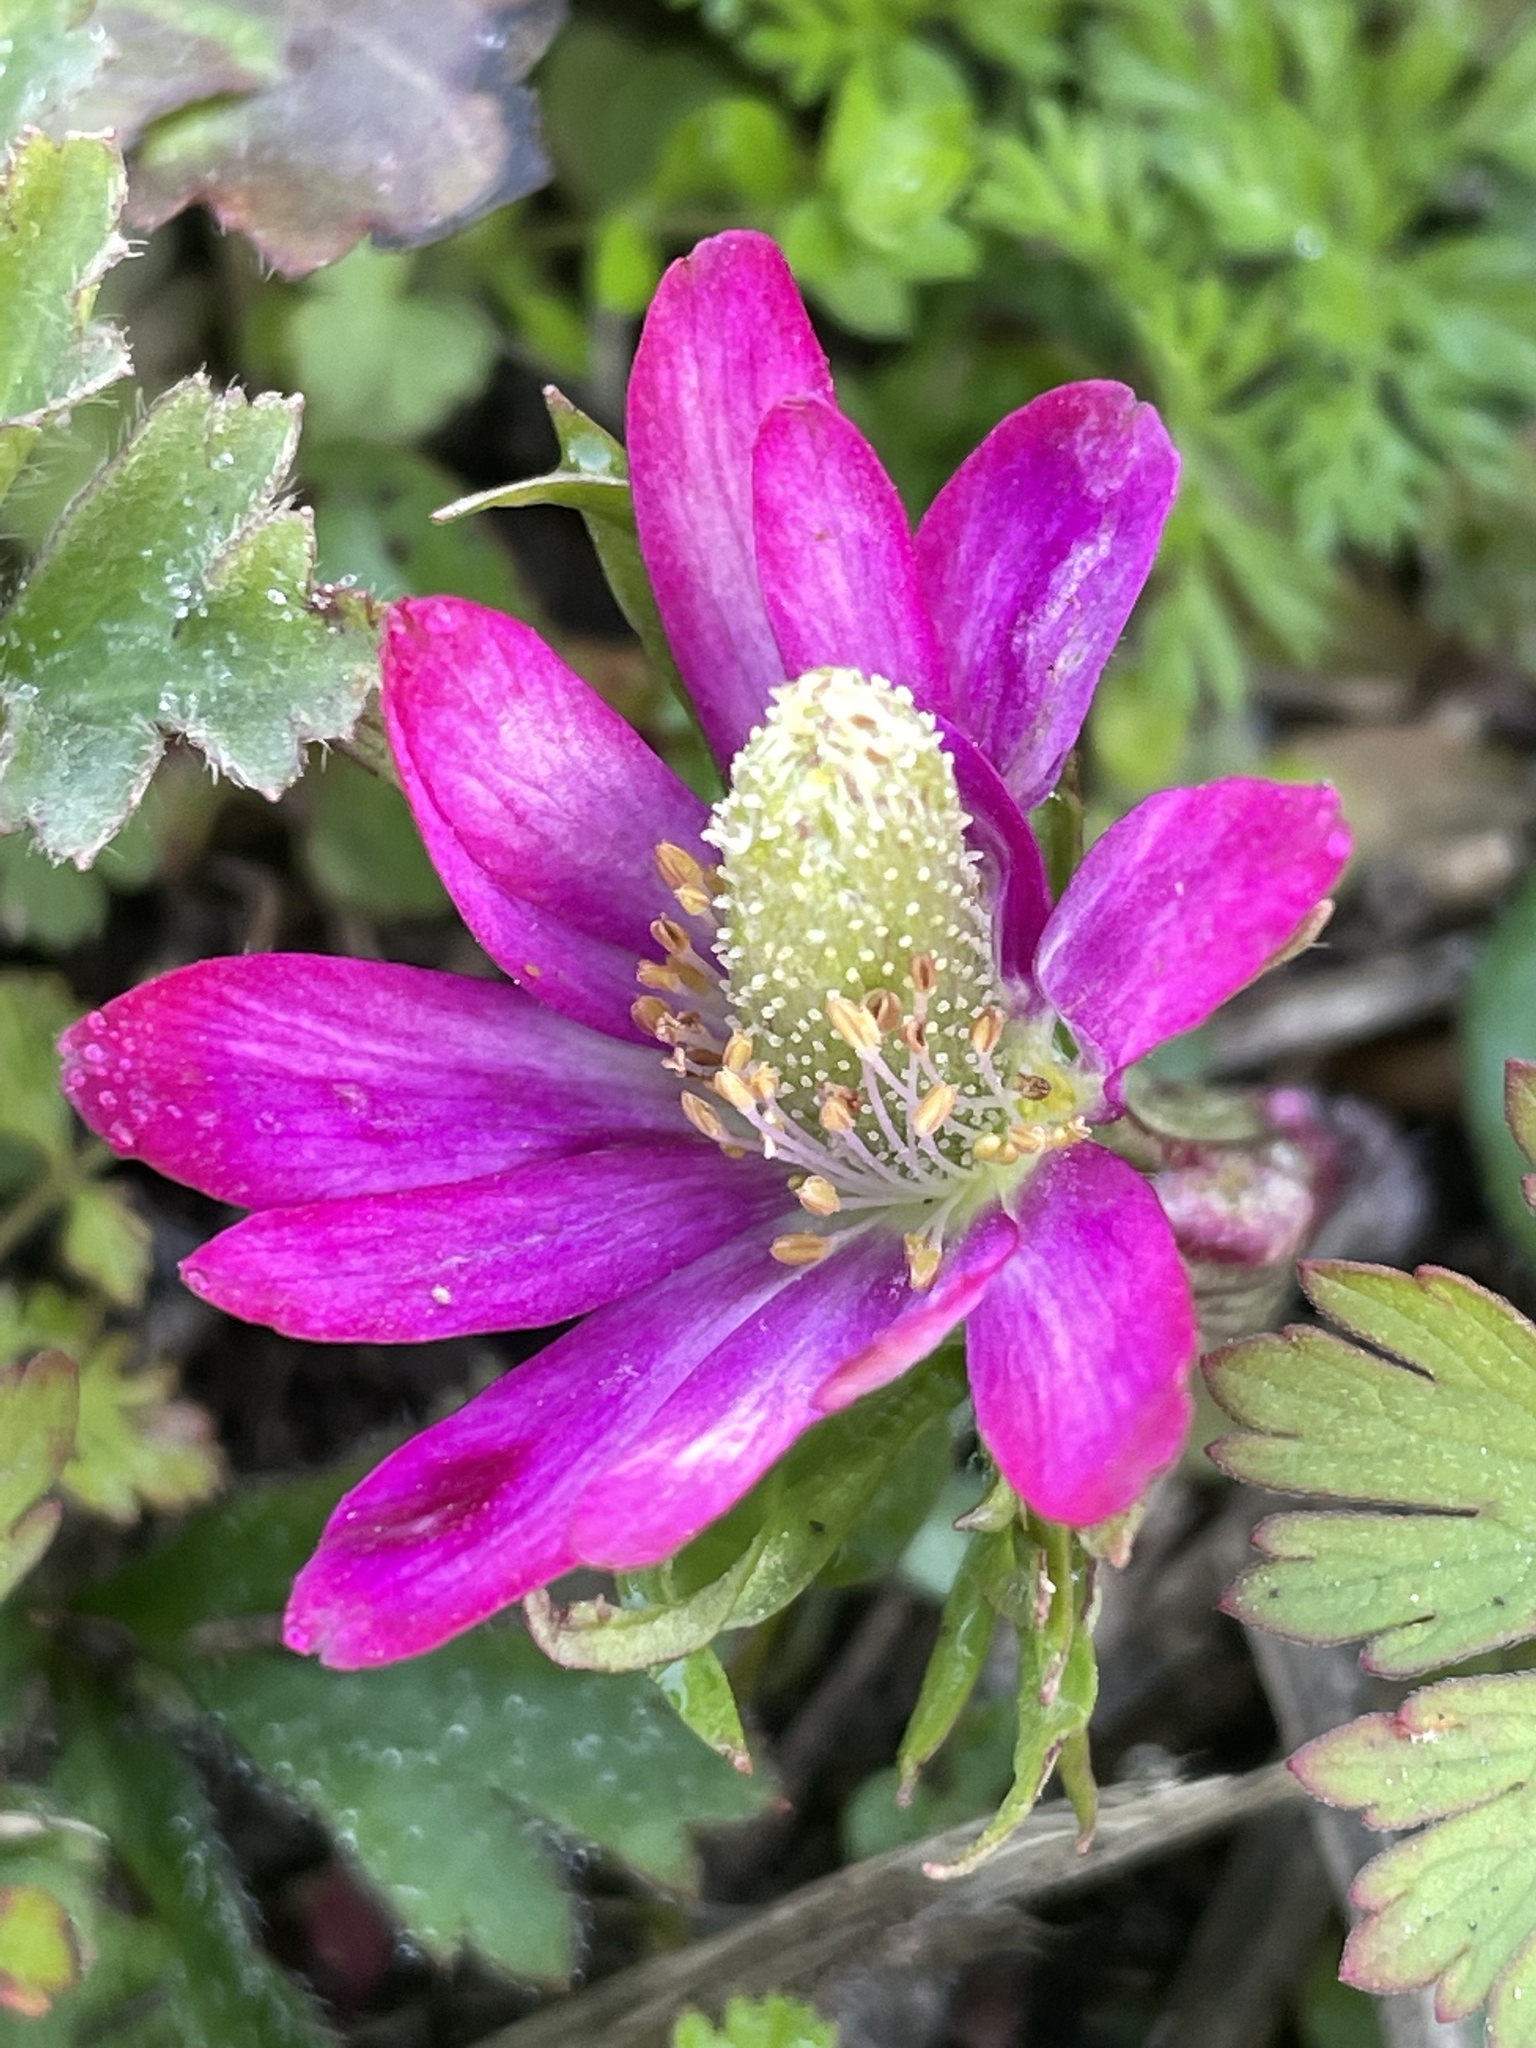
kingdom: Plantae
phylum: Tracheophyta
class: Magnoliopsida
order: Ranunculales
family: Ranunculaceae
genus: Anemone
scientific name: Anemone berlandieri
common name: Ten-petal anemone
